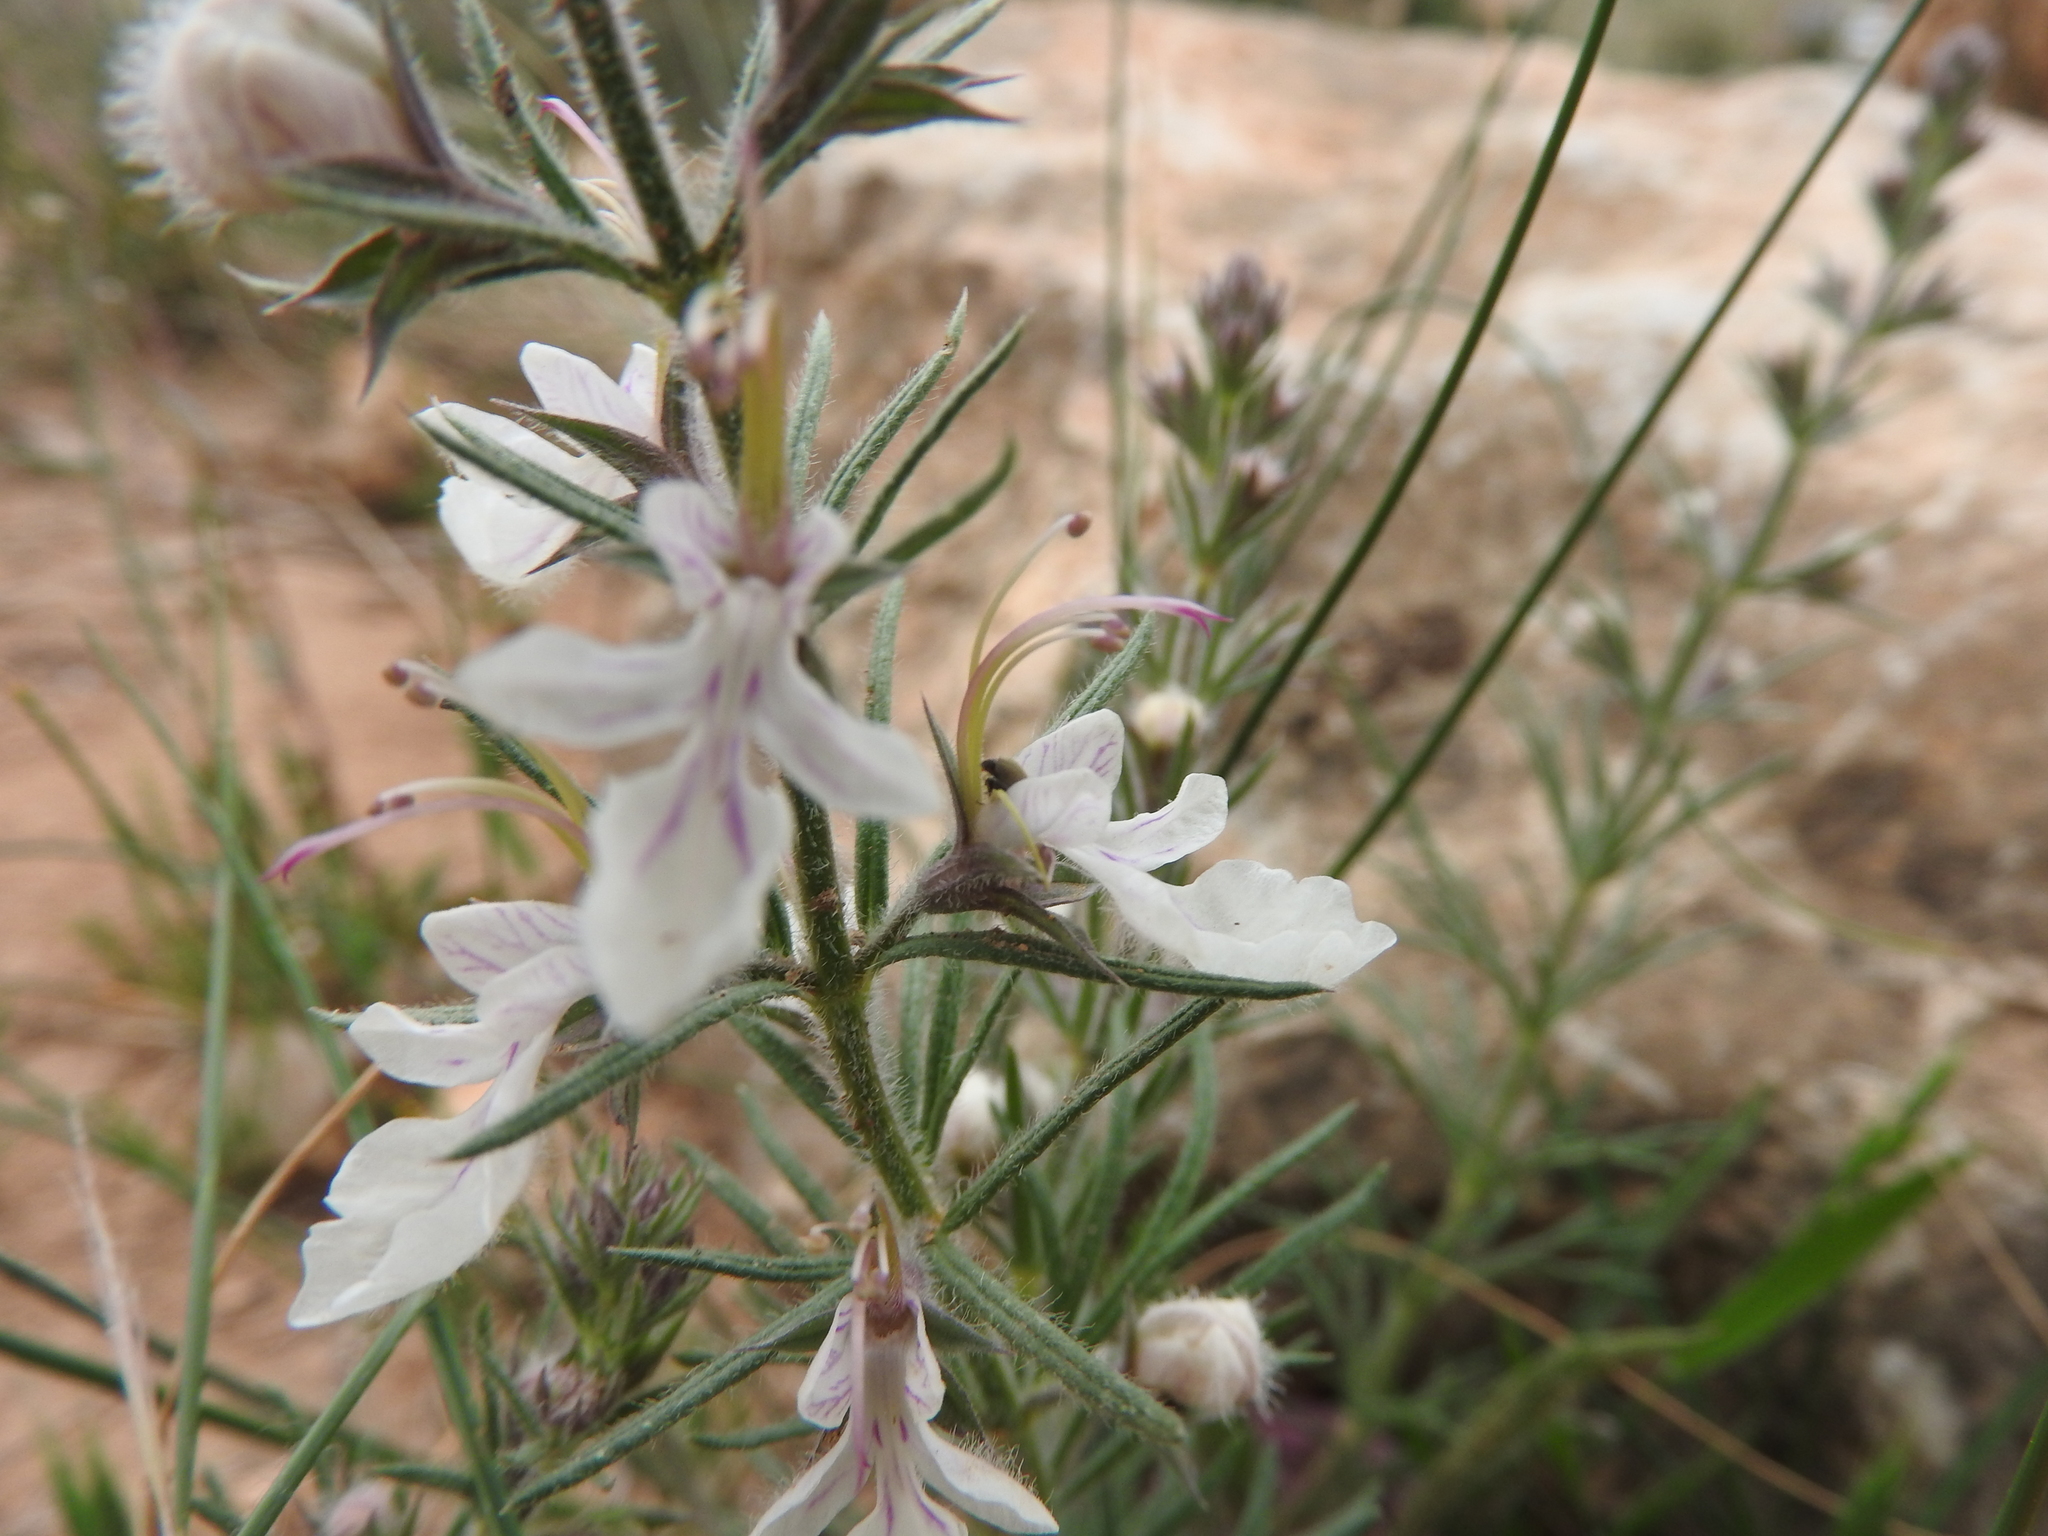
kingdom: Plantae
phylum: Tracheophyta
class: Magnoliopsida
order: Lamiales
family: Lamiaceae
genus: Teucrium
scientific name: Teucrium pseudochamaepitys
